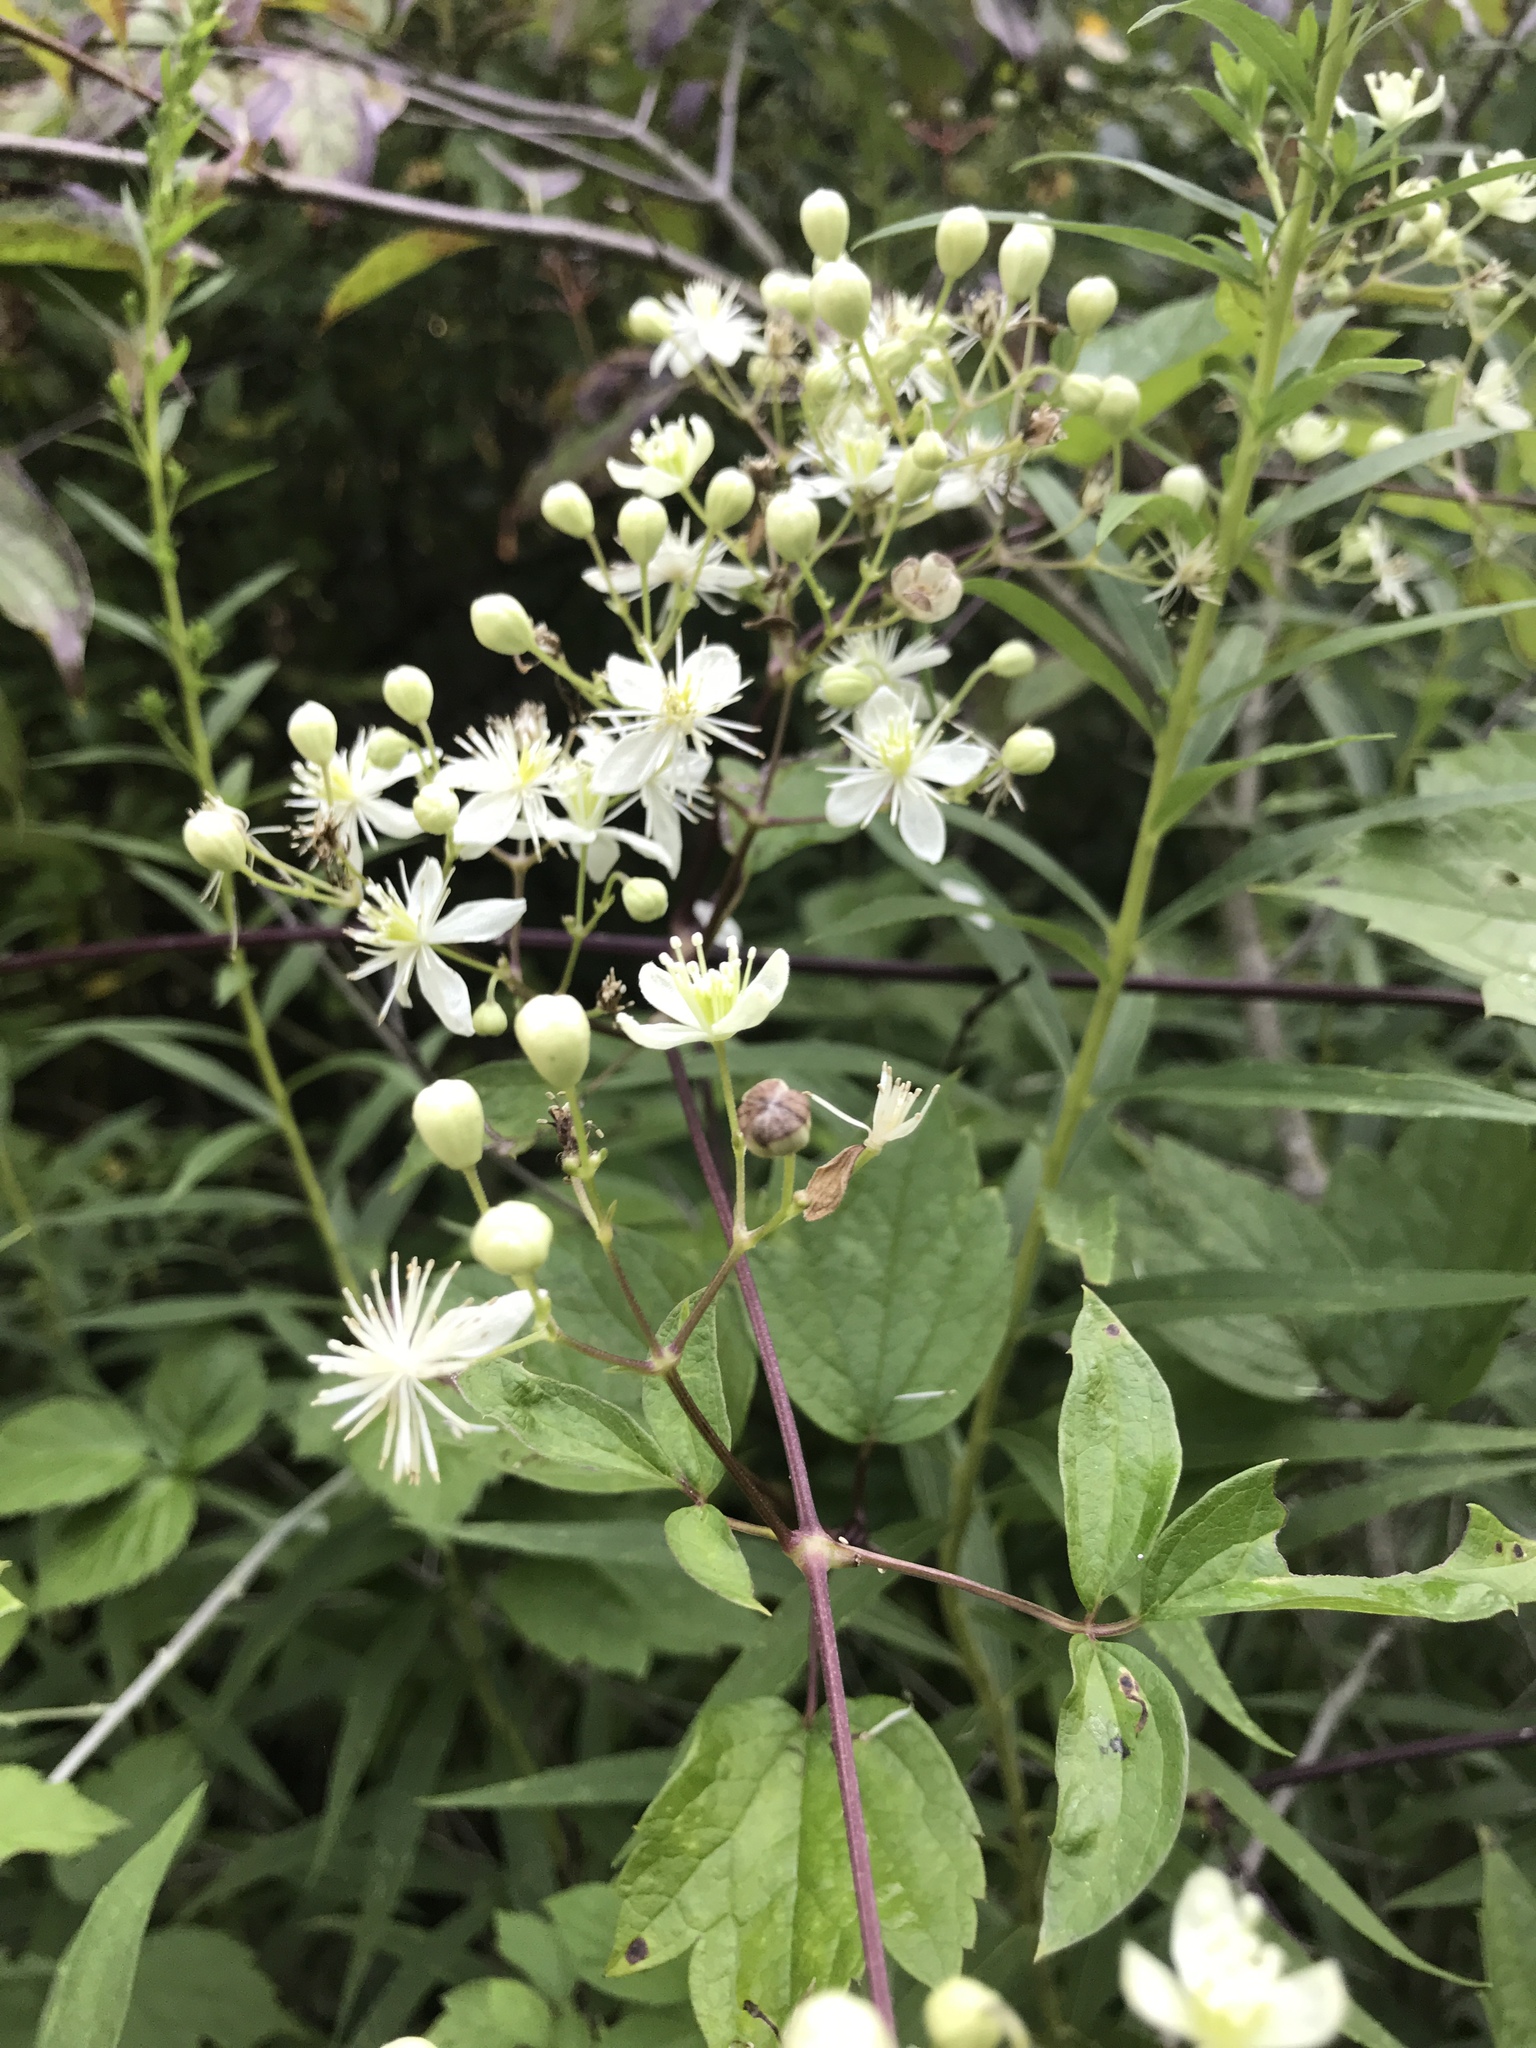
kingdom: Plantae
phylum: Tracheophyta
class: Magnoliopsida
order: Ranunculales
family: Ranunculaceae
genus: Clematis
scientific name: Clematis virginiana
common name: Virgin's-bower
